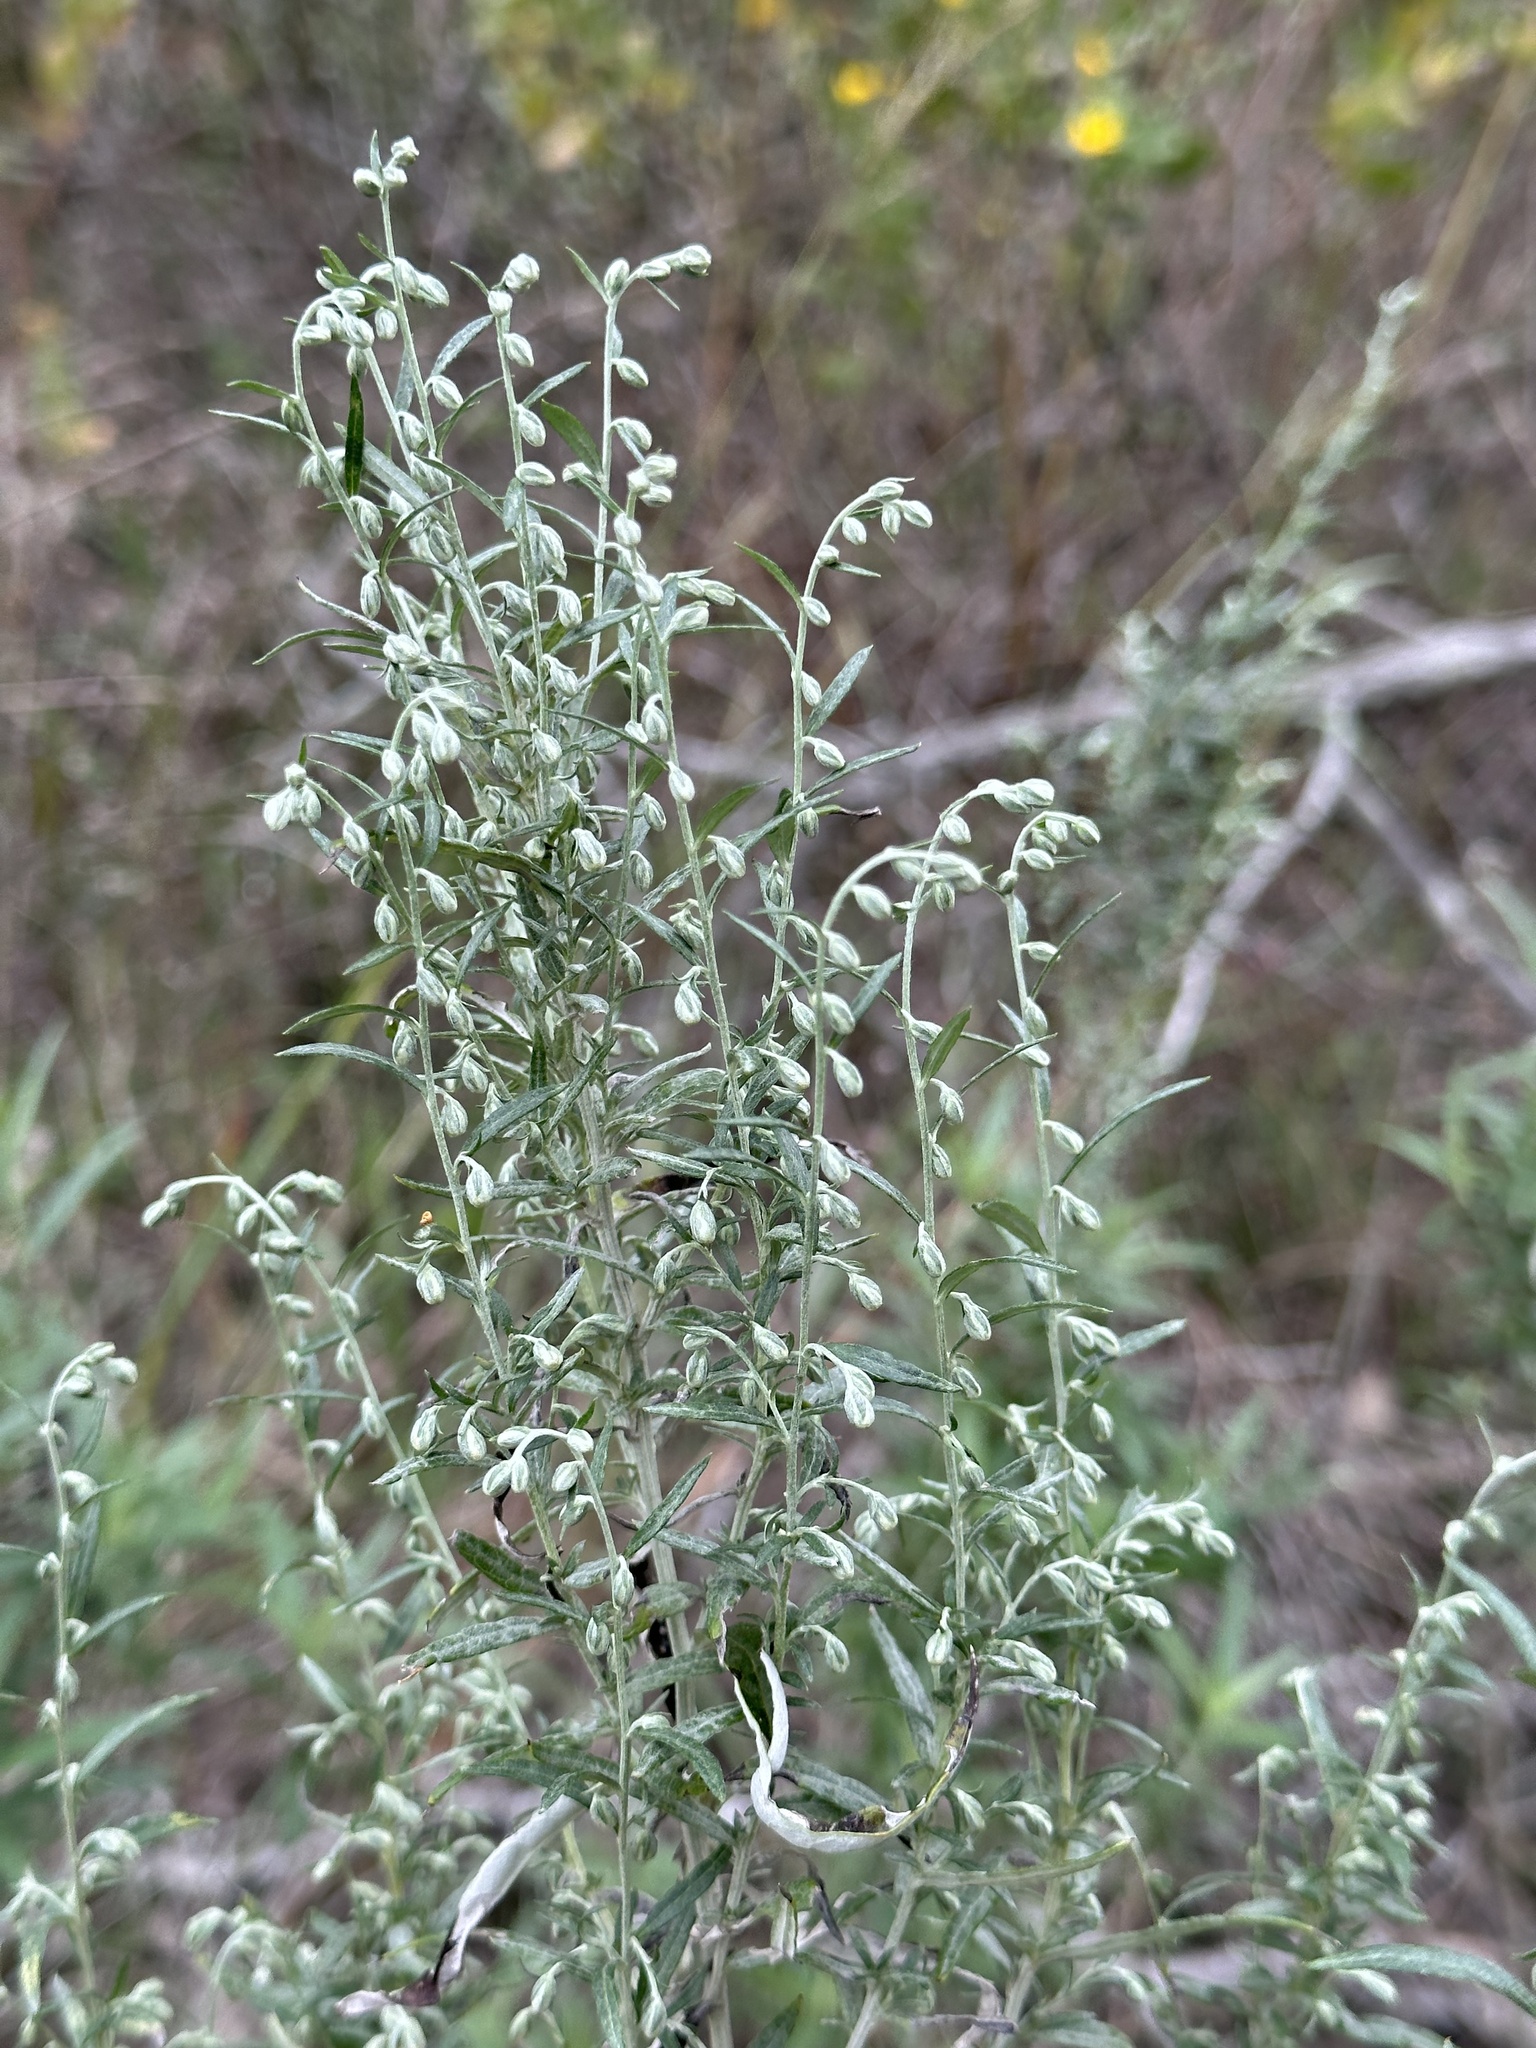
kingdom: Plantae
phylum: Tracheophyta
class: Magnoliopsida
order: Asterales
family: Asteraceae
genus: Artemisia
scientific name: Artemisia ludoviciana
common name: Western mugwort
